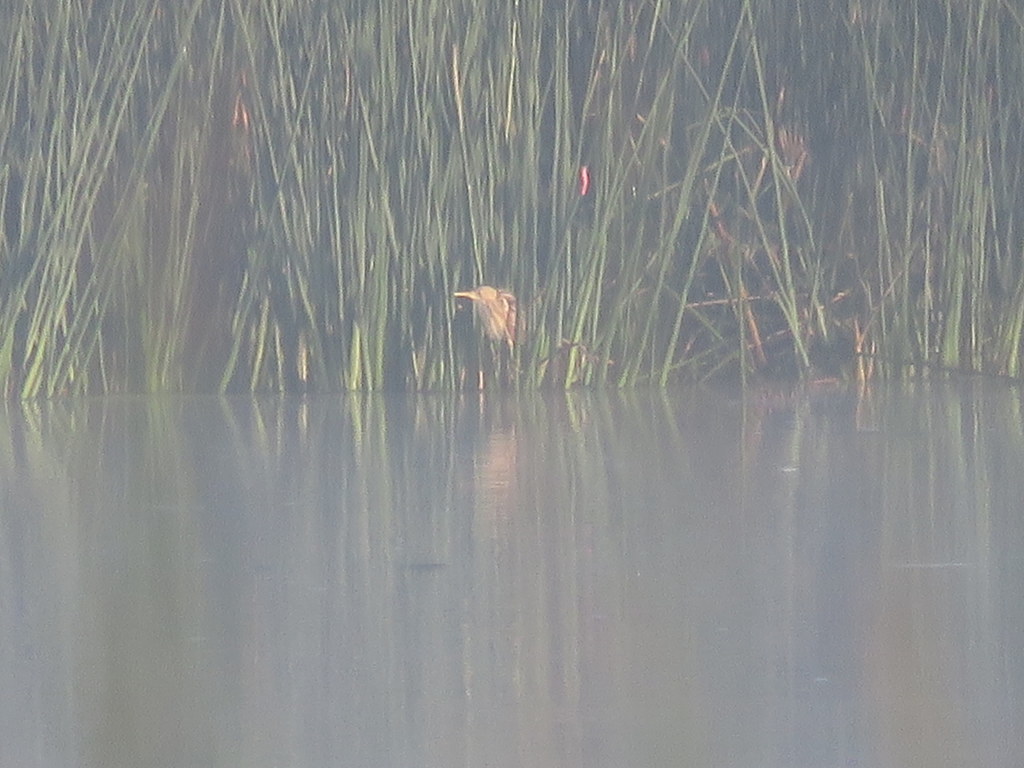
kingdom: Animalia
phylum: Chordata
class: Aves
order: Pelecaniformes
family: Ardeidae
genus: Ixobrychus
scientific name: Ixobrychus involucris
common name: Stripe-backed bittern
